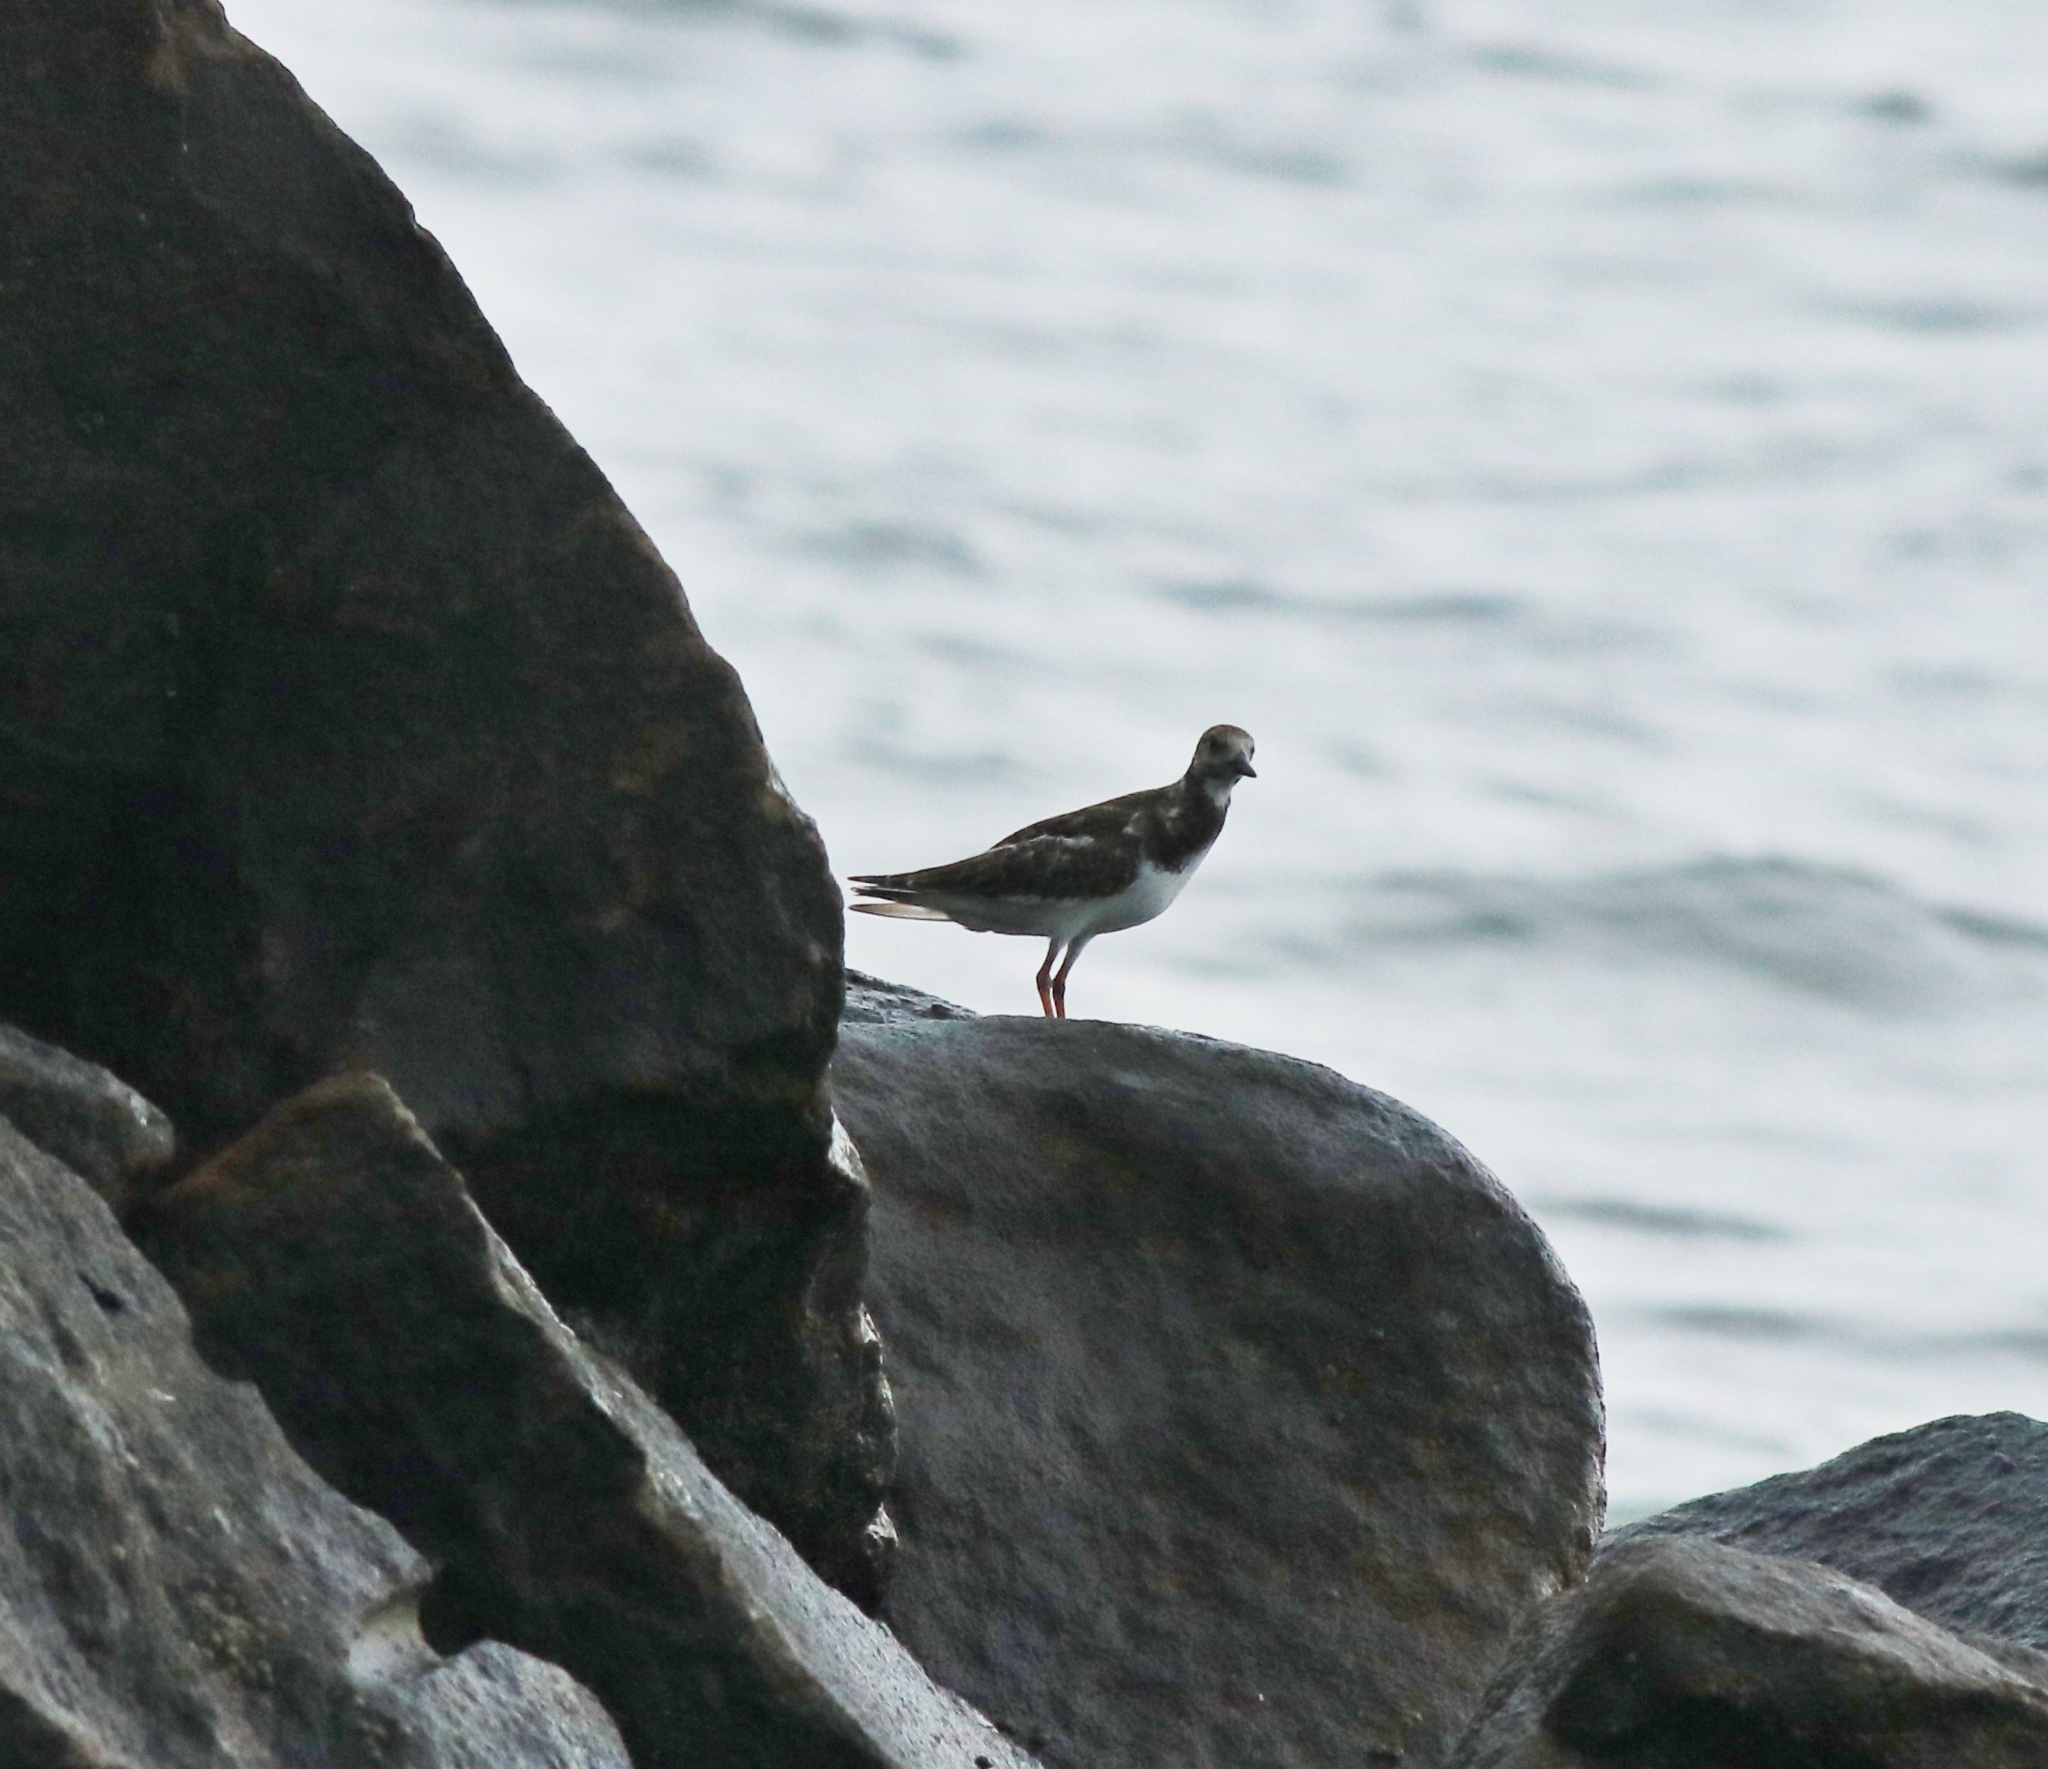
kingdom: Animalia
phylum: Chordata
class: Aves
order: Charadriiformes
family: Scolopacidae
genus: Arenaria
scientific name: Arenaria interpres
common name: Ruddy turnstone
